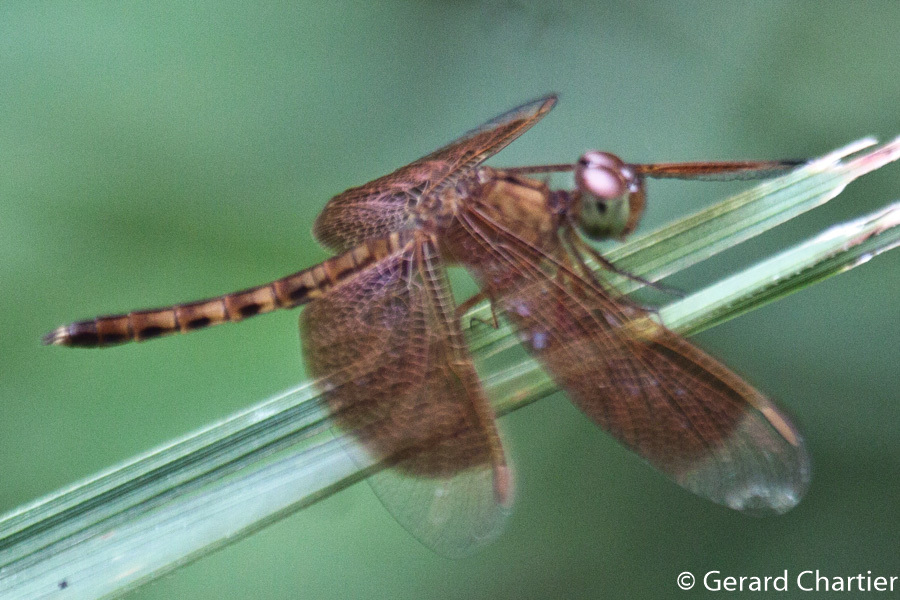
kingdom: Animalia
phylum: Arthropoda
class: Insecta
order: Odonata
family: Libellulidae
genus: Neurothemis
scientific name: Neurothemis fluctuans
